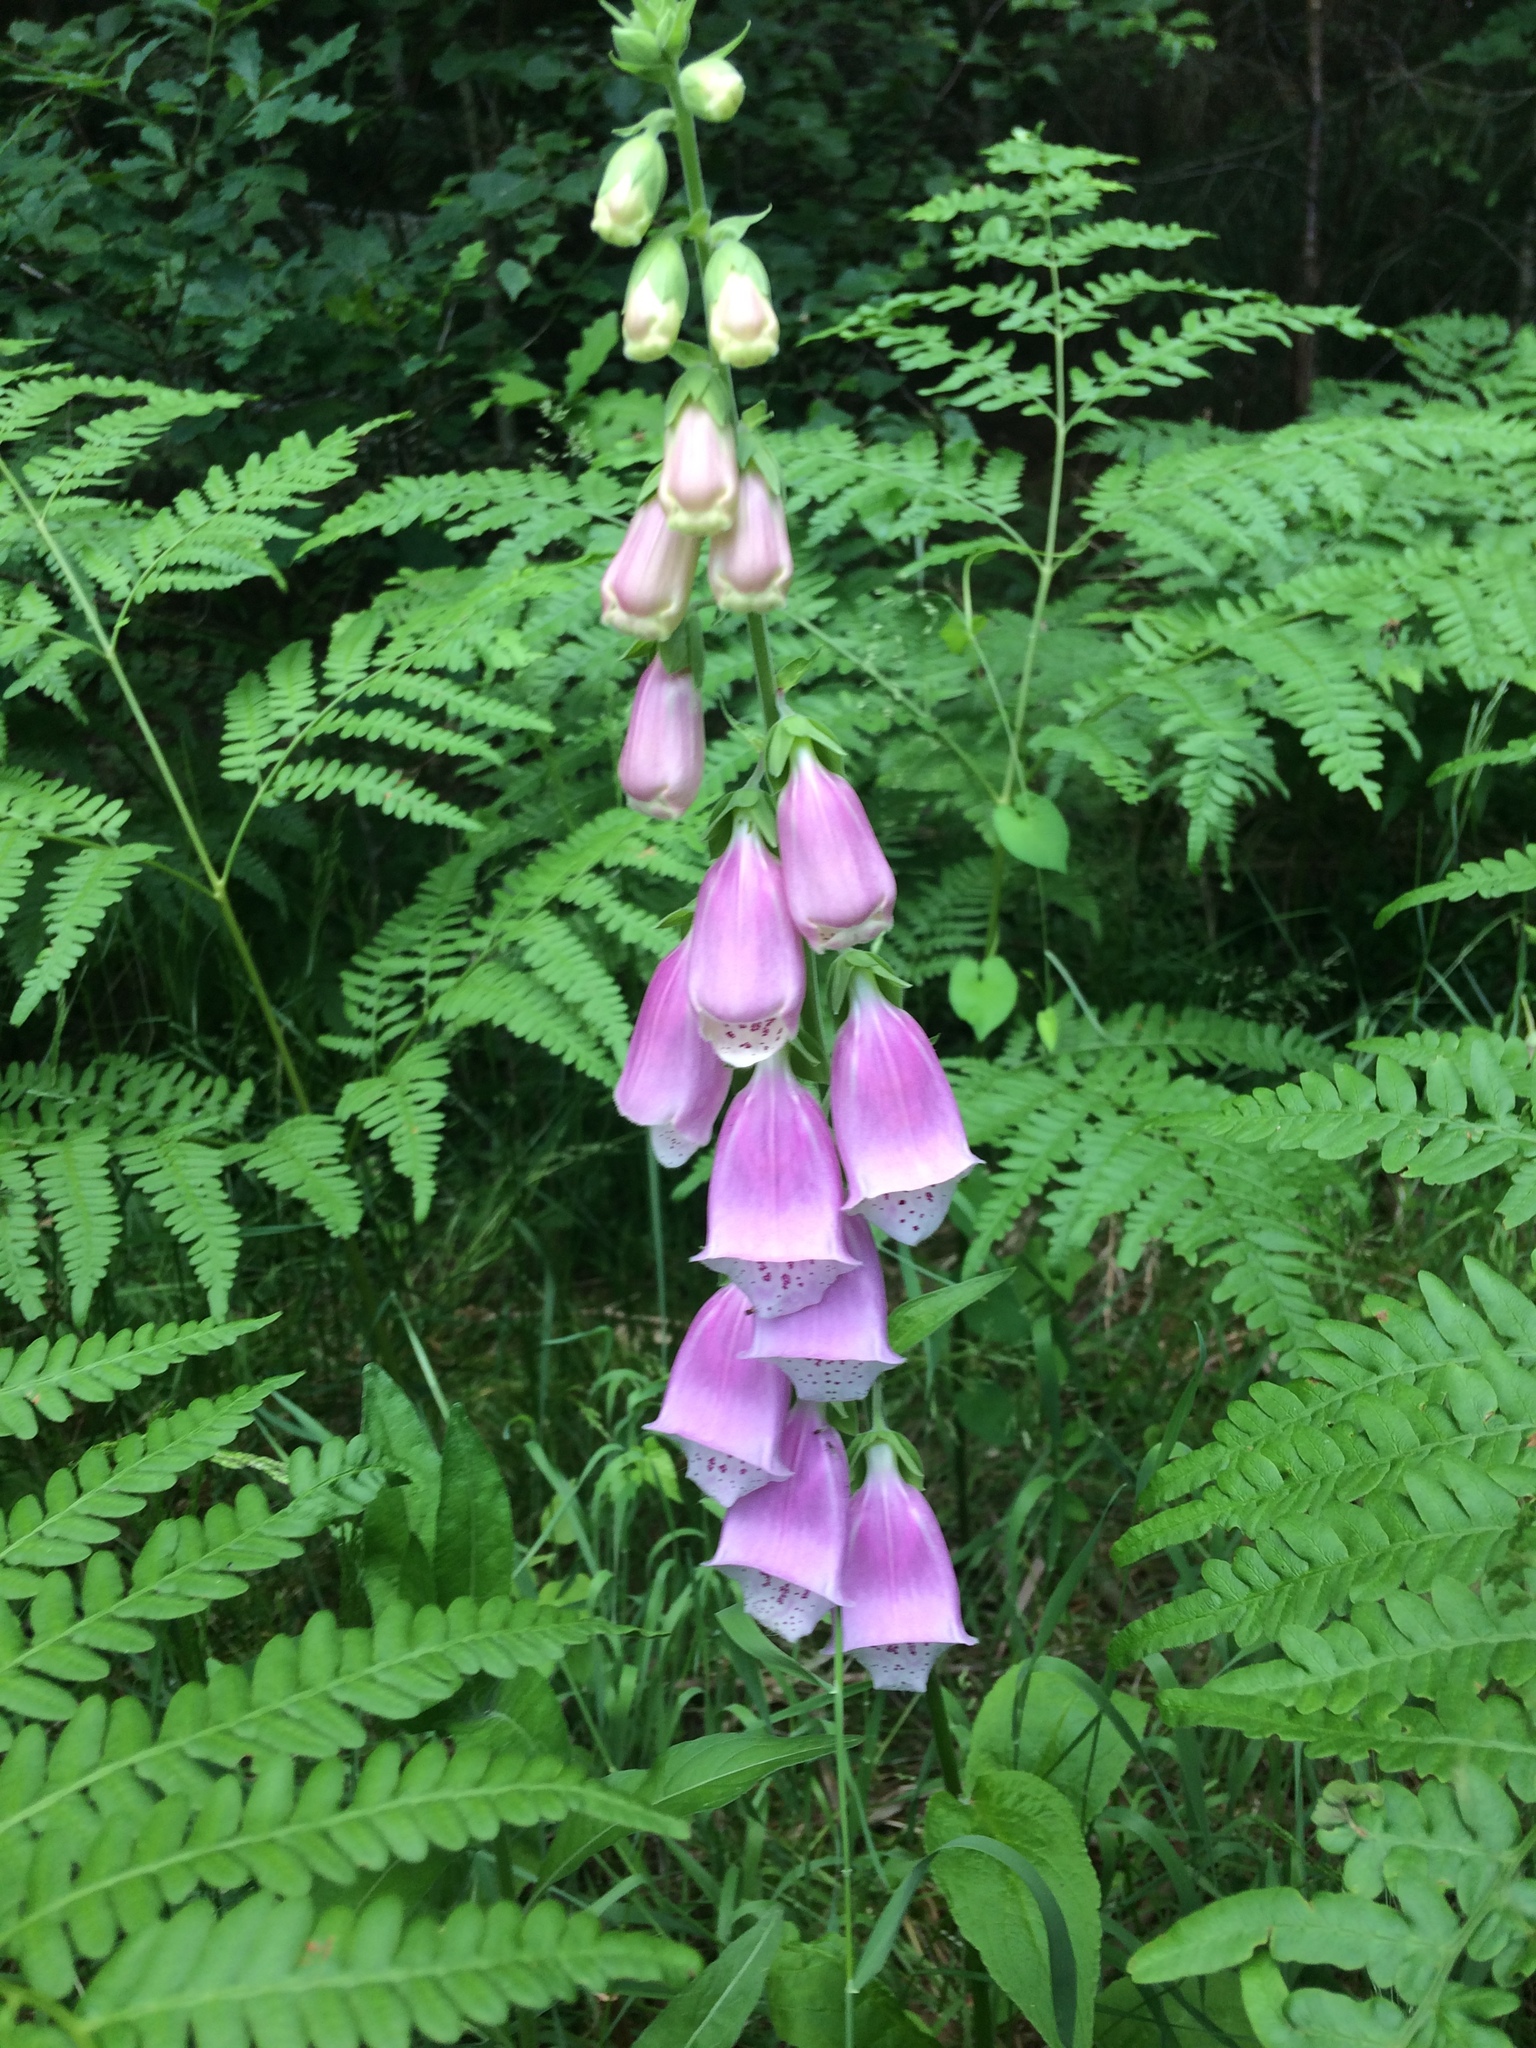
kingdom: Plantae
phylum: Tracheophyta
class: Magnoliopsida
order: Lamiales
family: Plantaginaceae
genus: Digitalis
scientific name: Digitalis purpurea
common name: Foxglove
